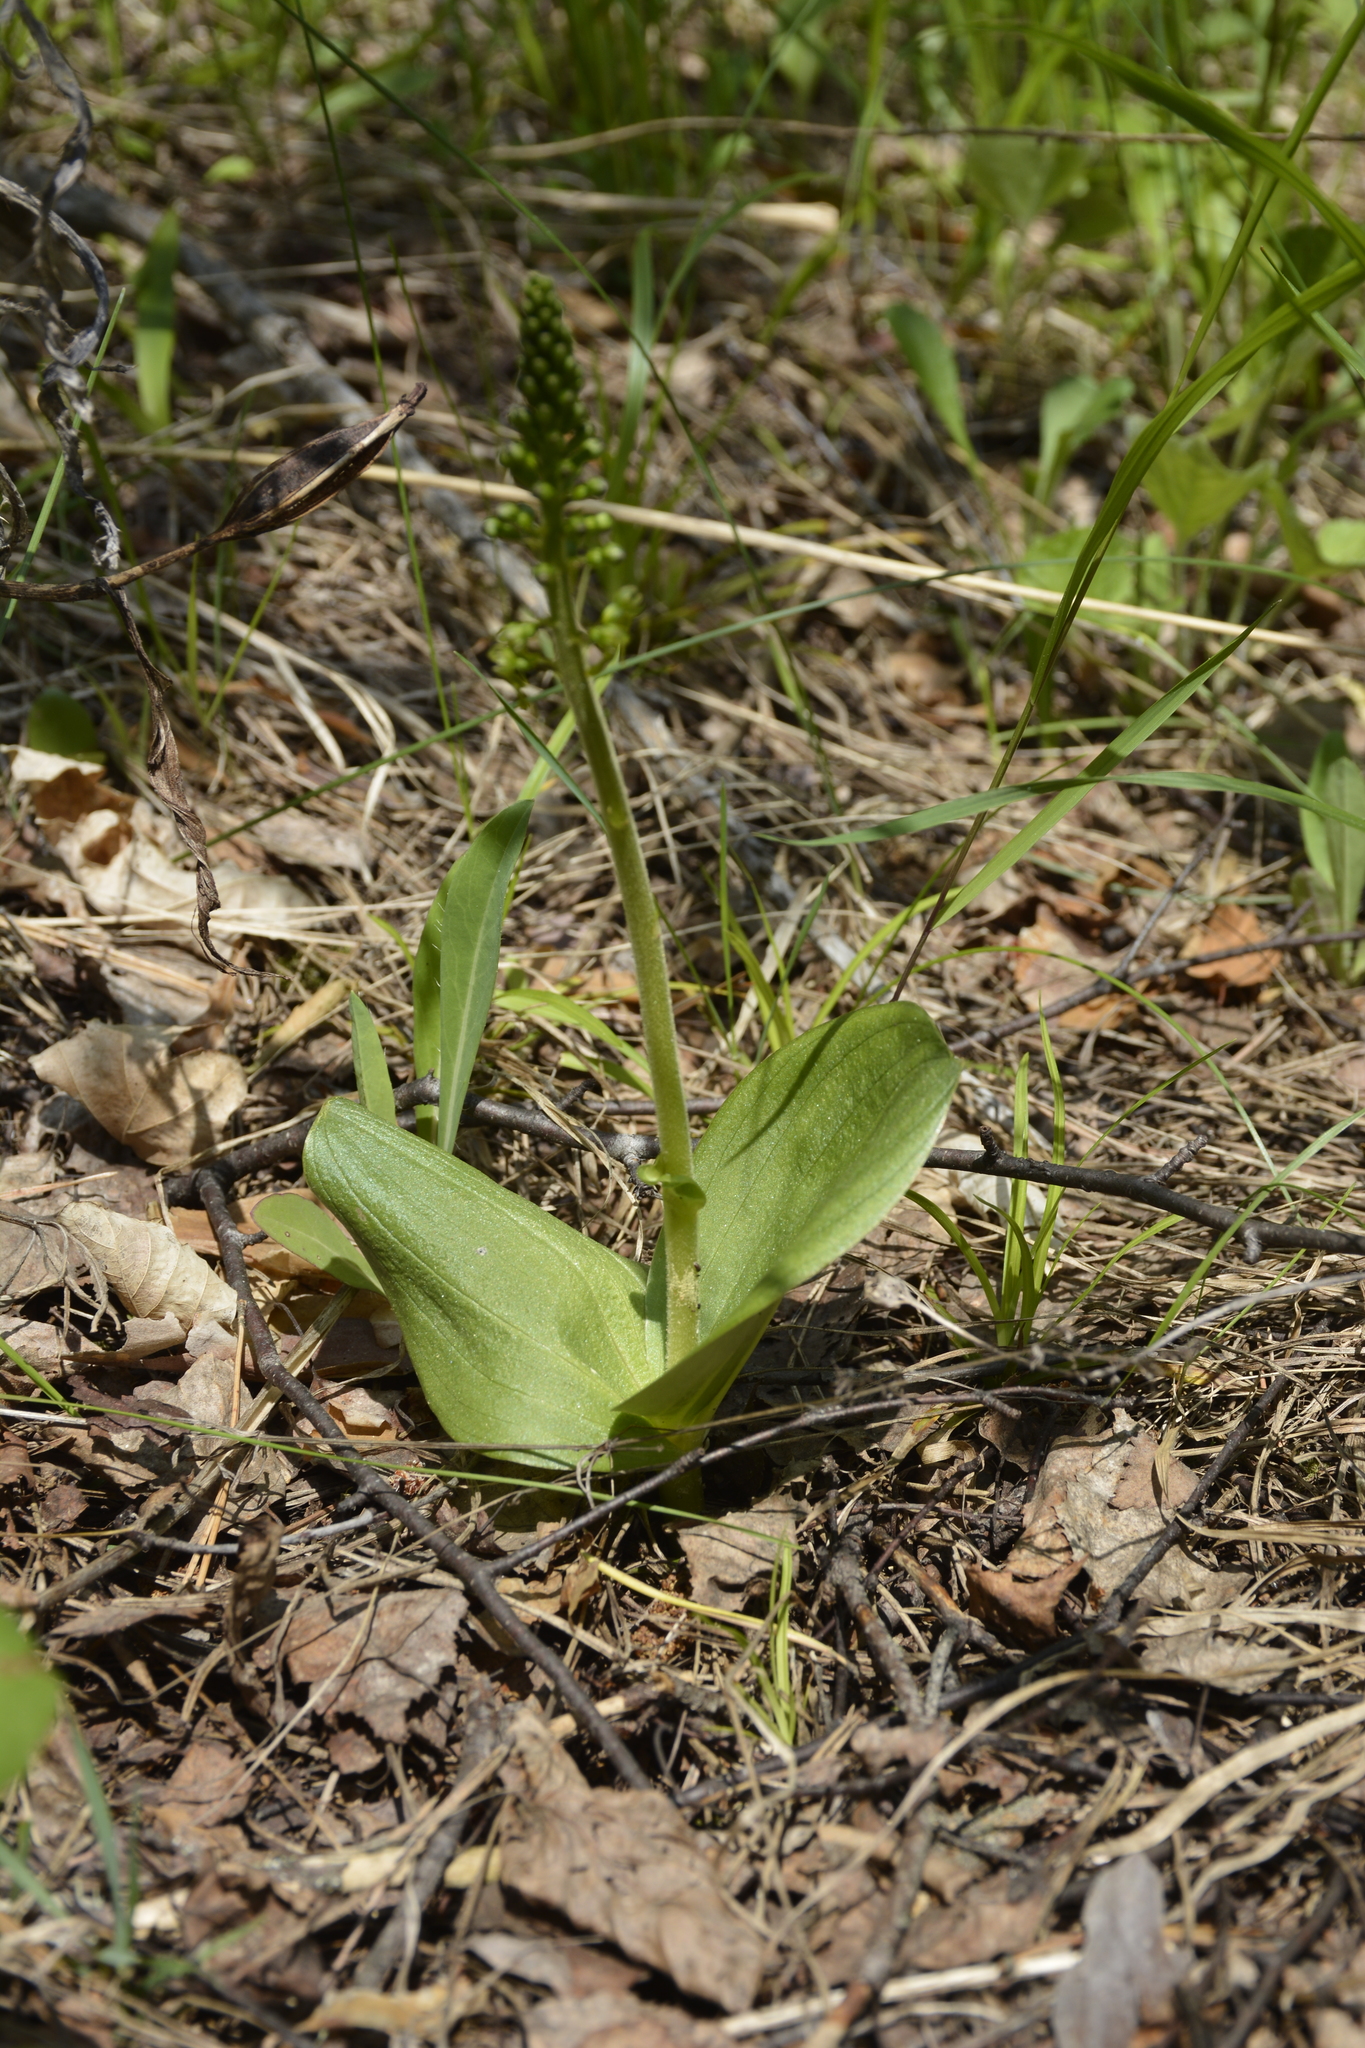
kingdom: Plantae
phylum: Tracheophyta
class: Liliopsida
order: Asparagales
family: Orchidaceae
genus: Neottia
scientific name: Neottia ovata
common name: Common twayblade
